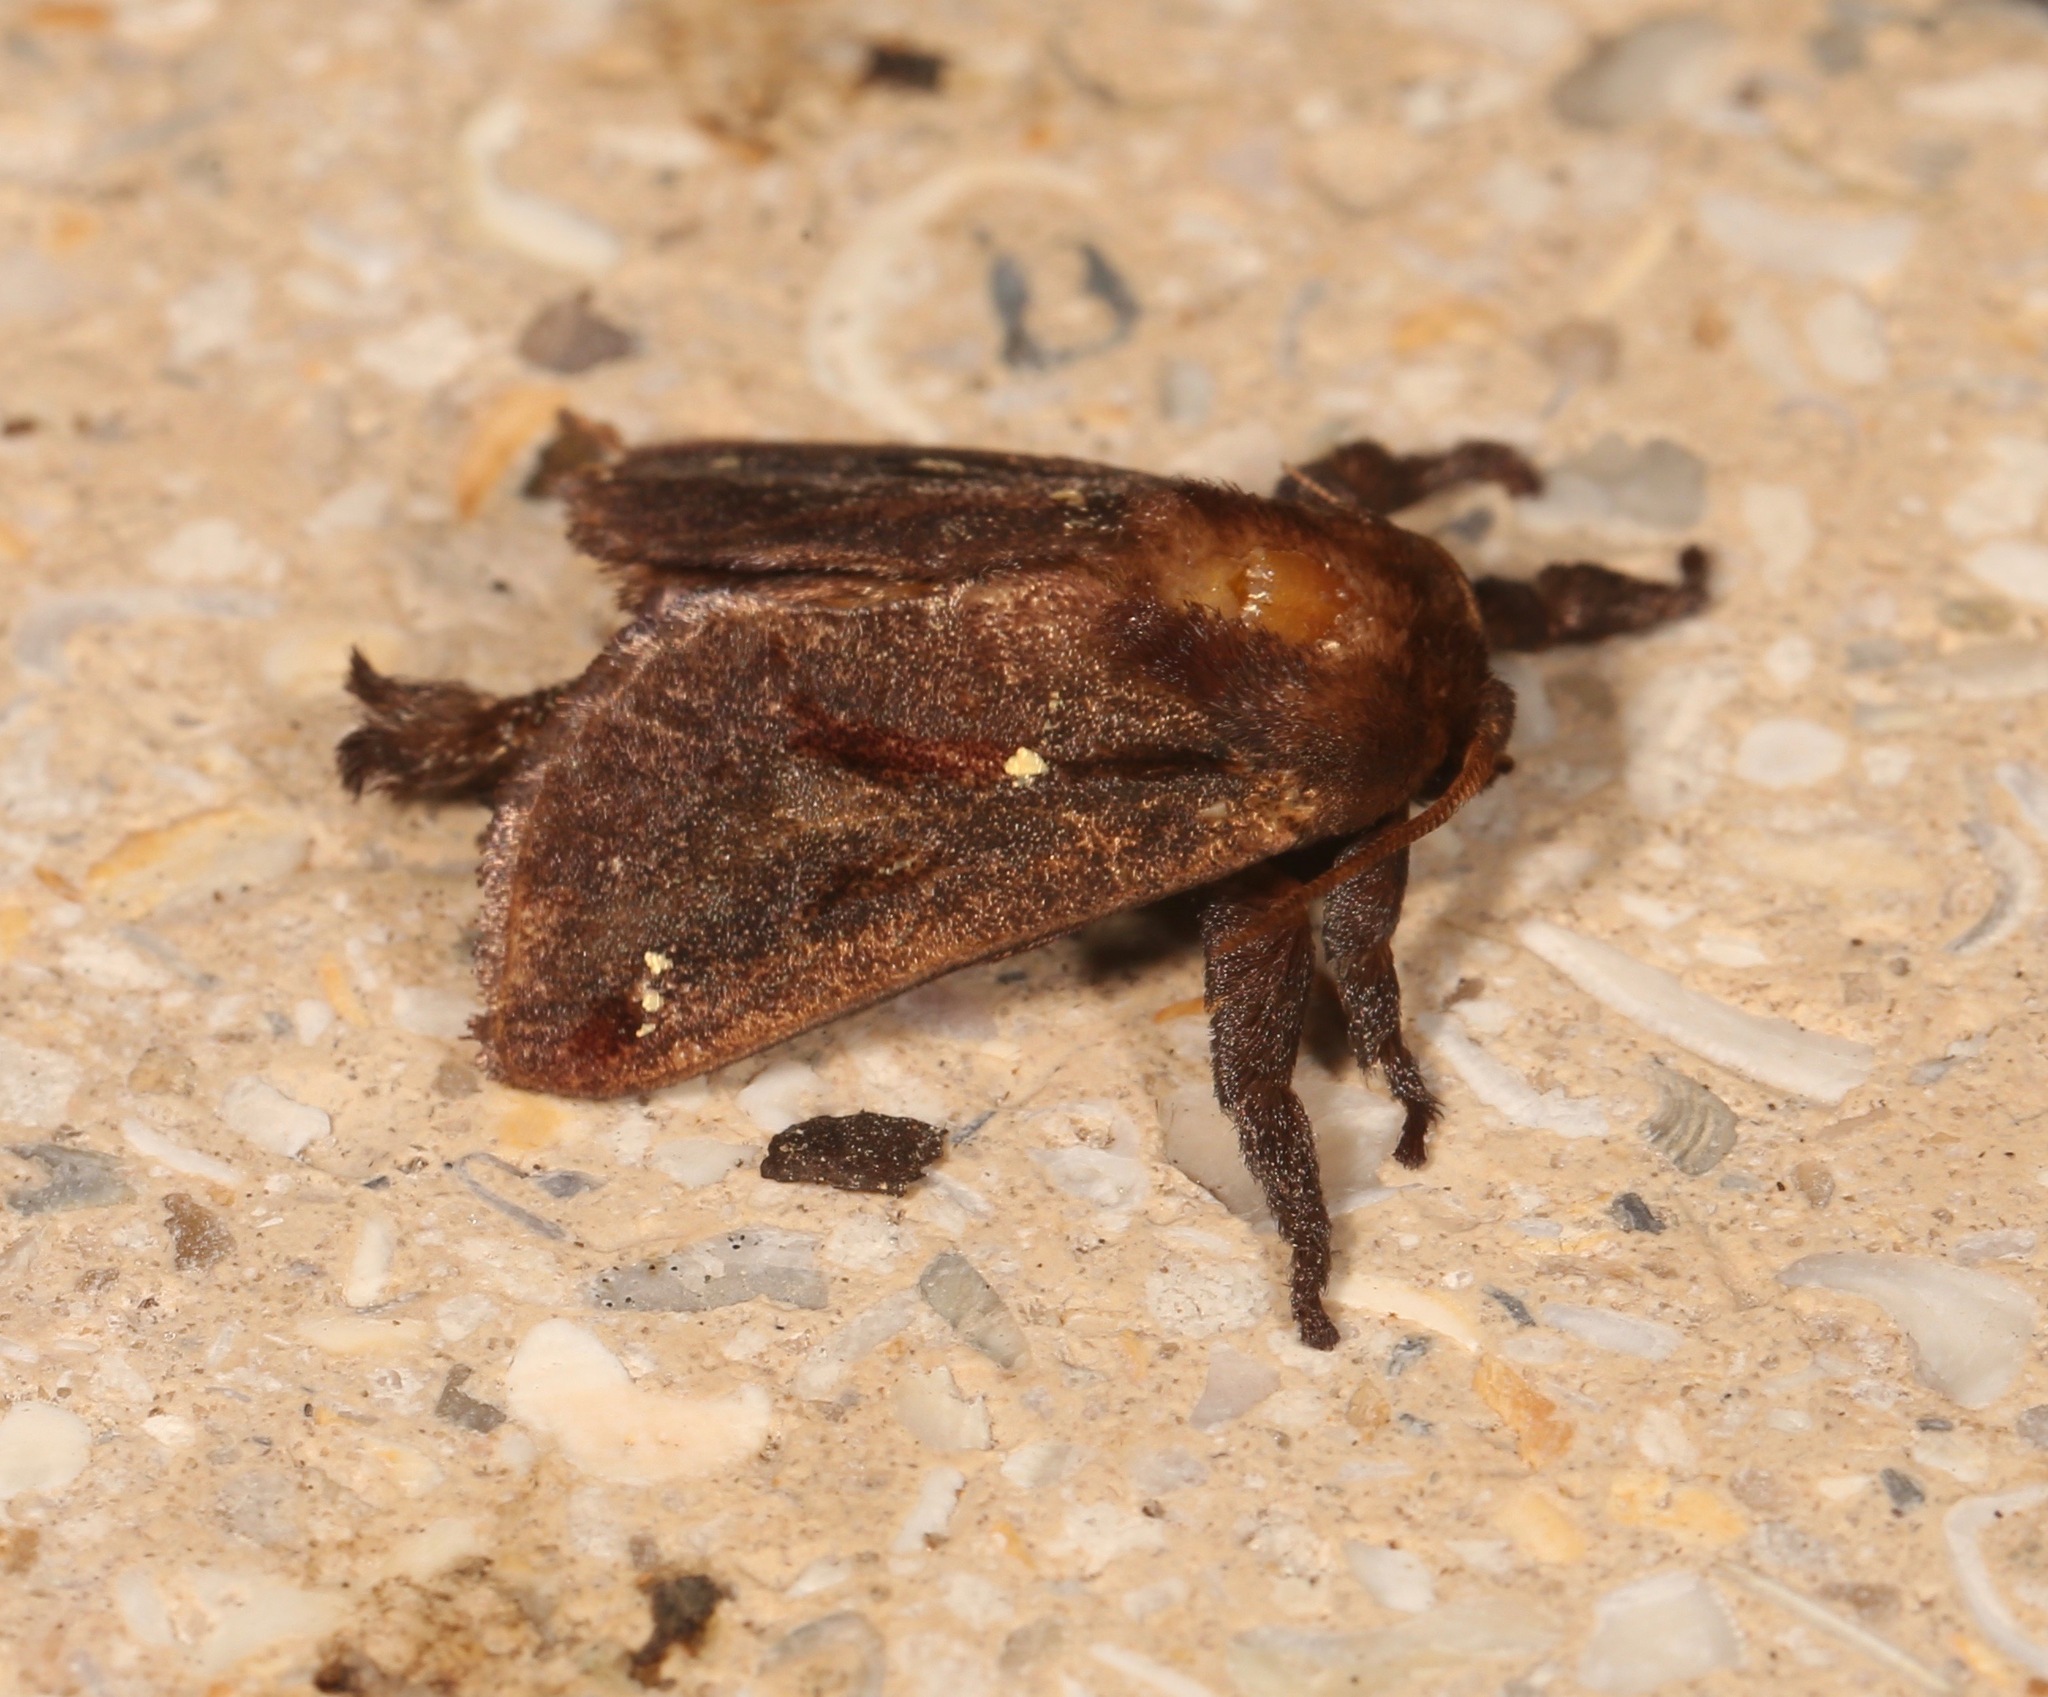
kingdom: Animalia
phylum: Arthropoda
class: Insecta
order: Lepidoptera
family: Limacodidae
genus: Acharia
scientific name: Acharia stimulea
